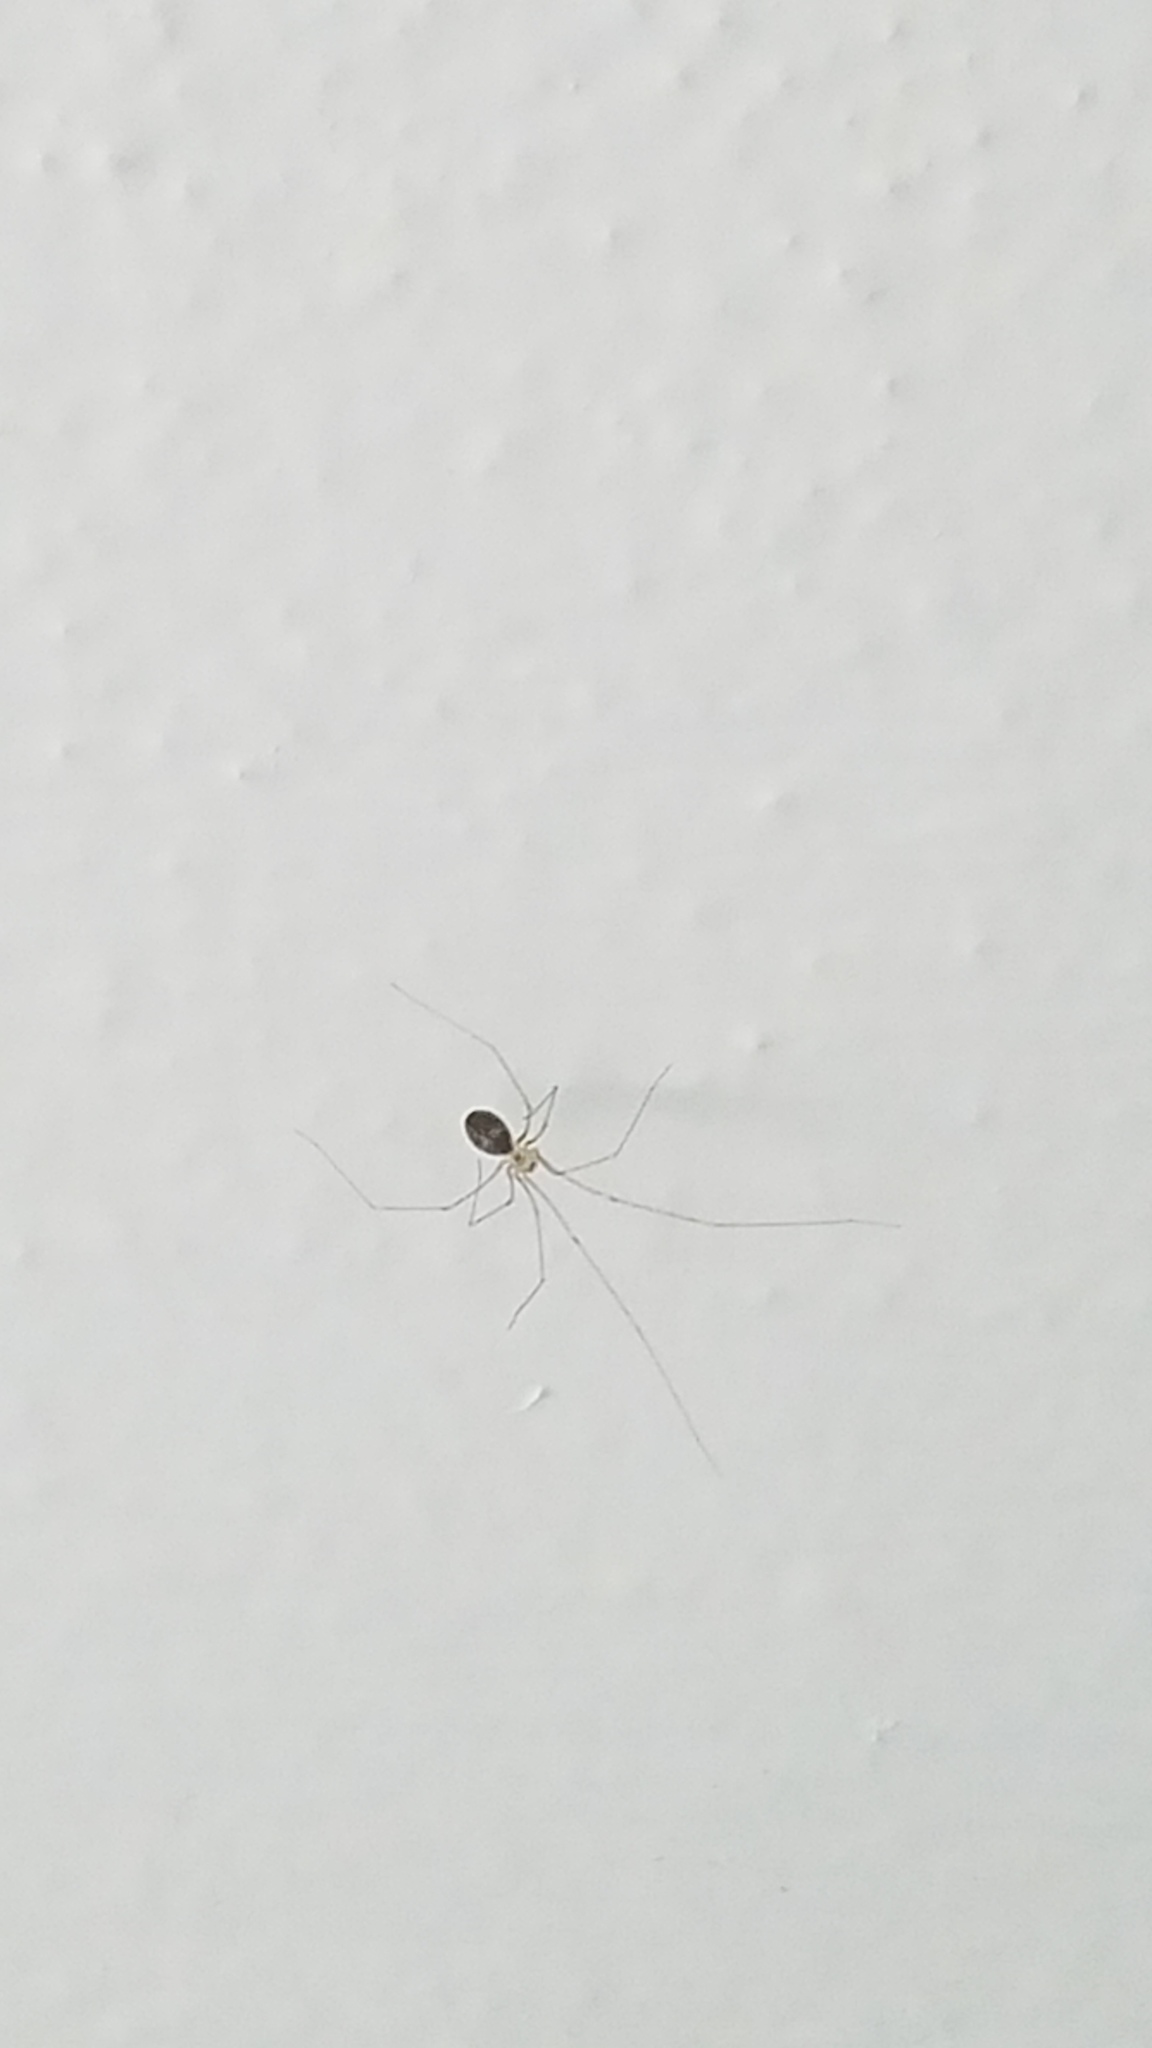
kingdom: Animalia
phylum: Arthropoda
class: Arachnida
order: Araneae
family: Pholcidae
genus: Pholcus
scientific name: Pholcus phalangioides
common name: Longbodied cellar spider
